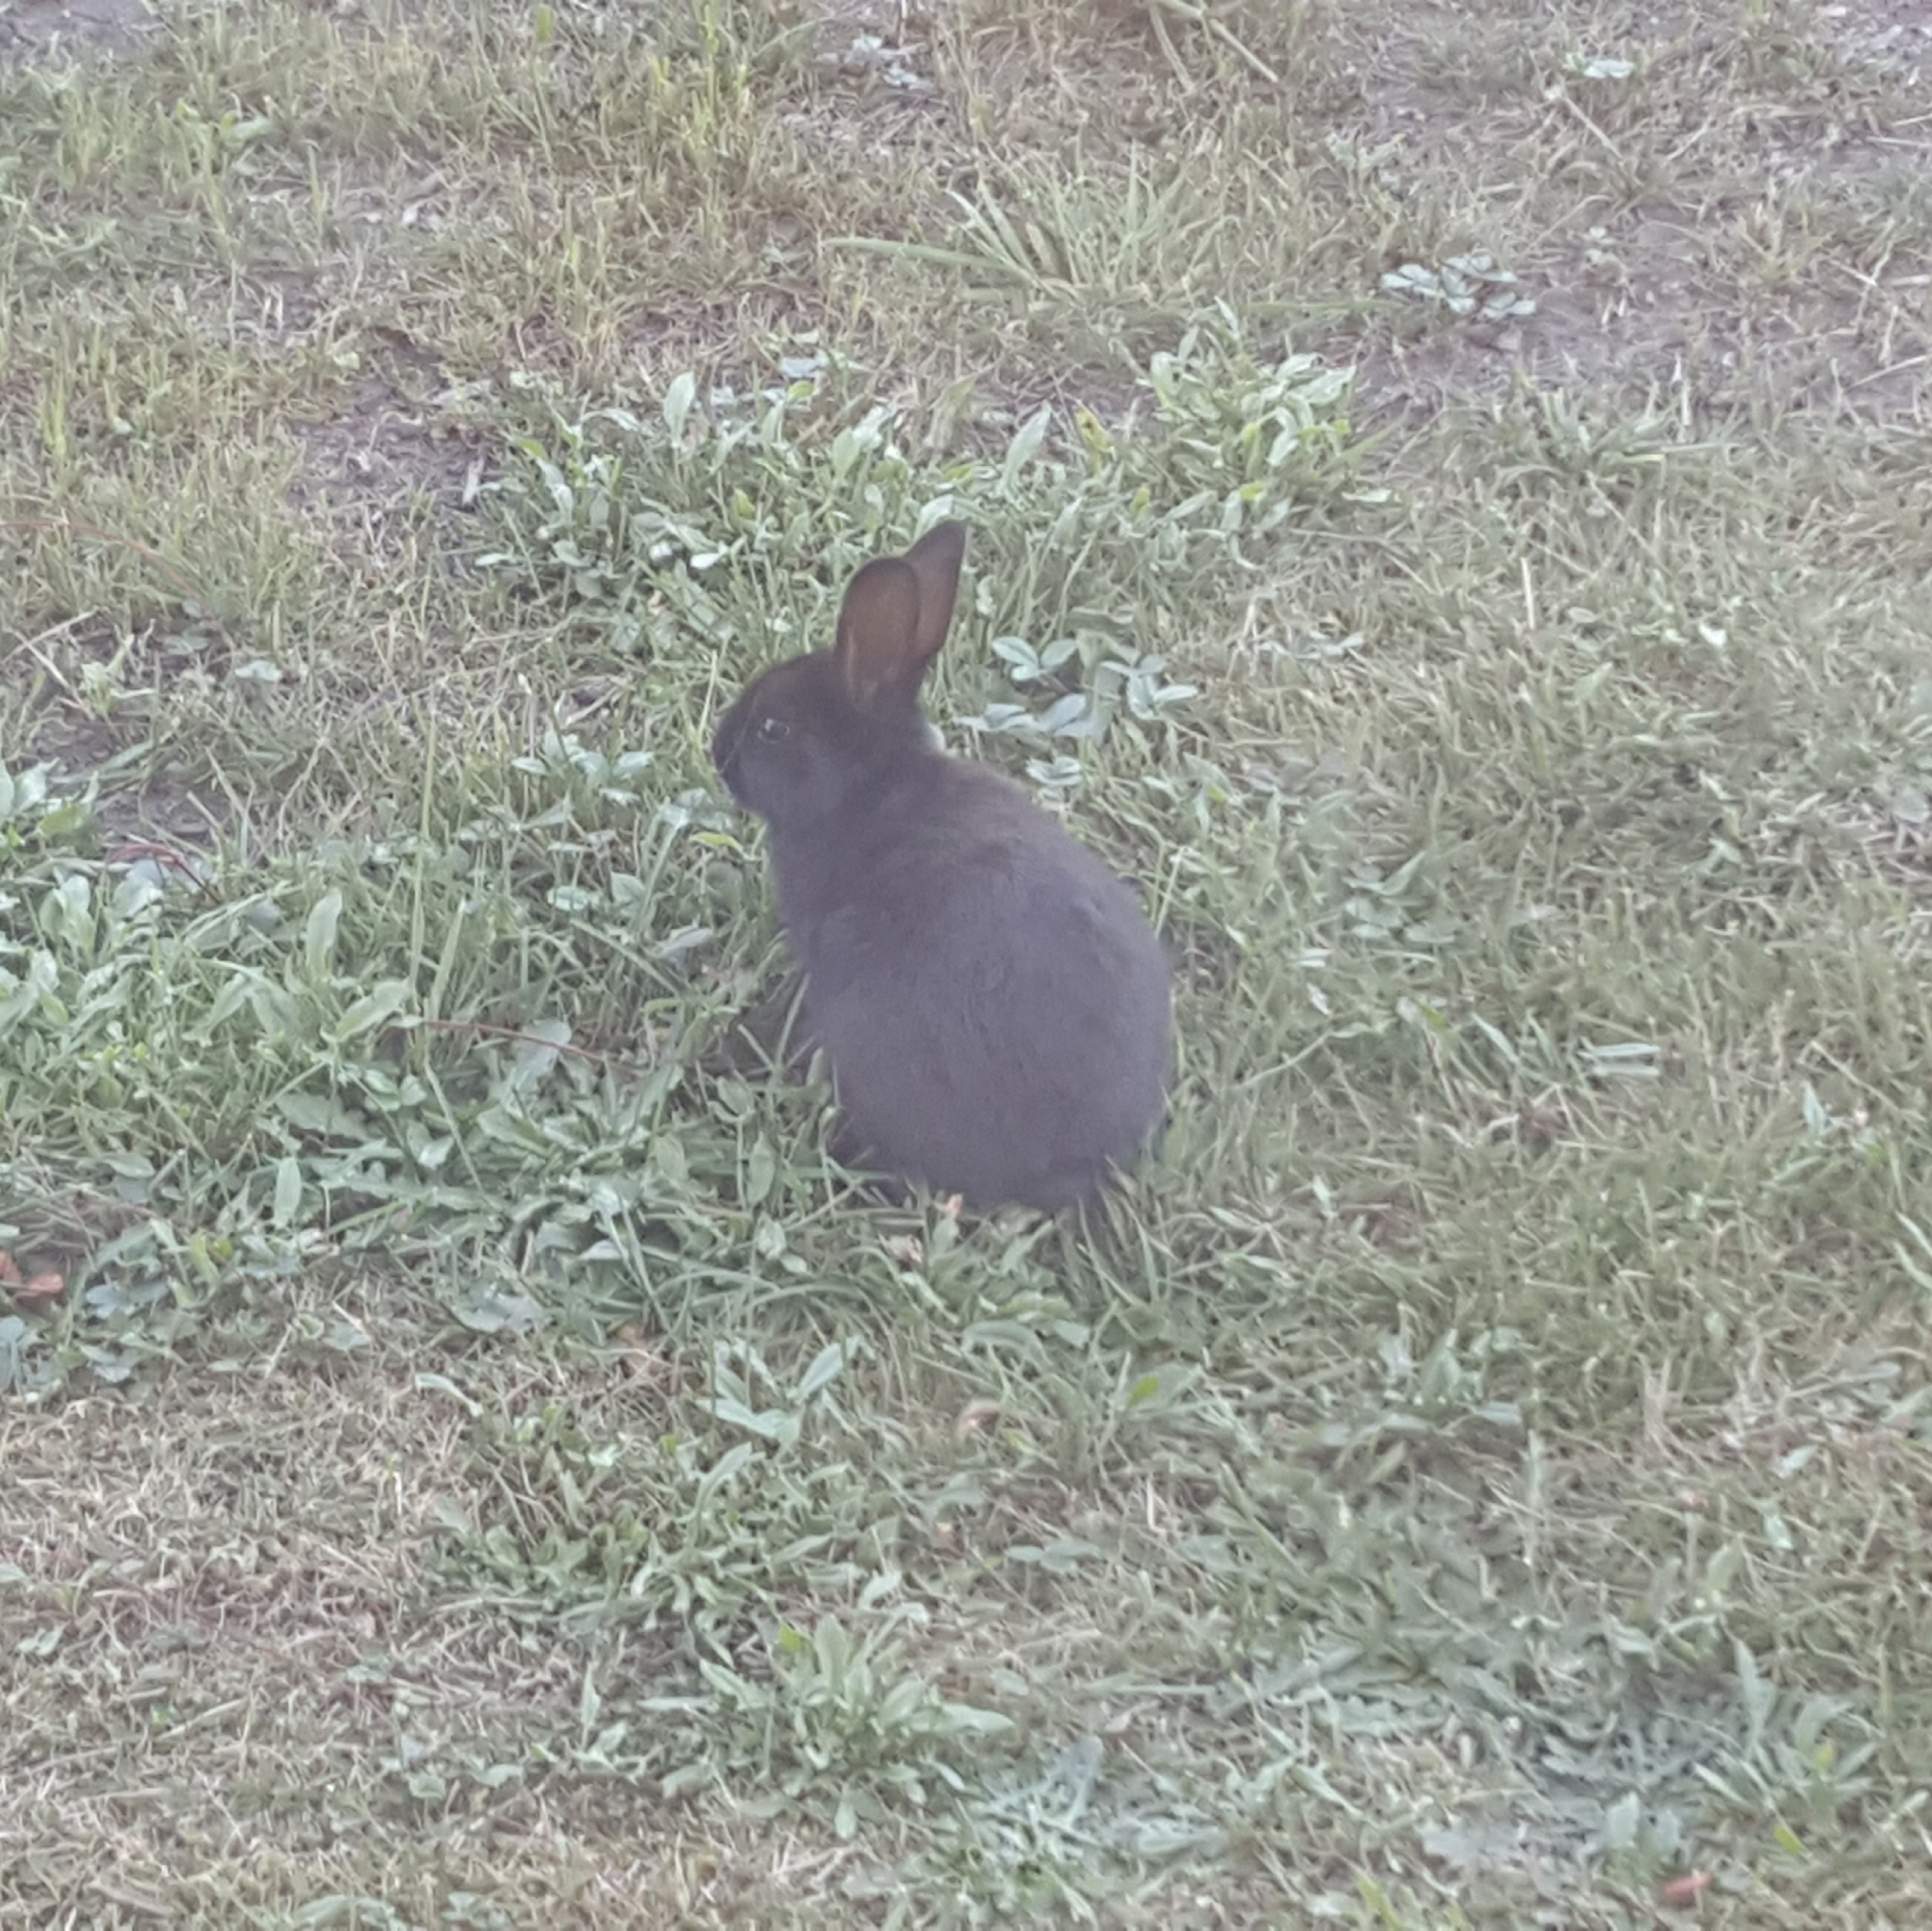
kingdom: Animalia
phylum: Chordata
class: Mammalia
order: Lagomorpha
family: Leporidae
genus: Oryctolagus
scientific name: Oryctolagus cuniculus
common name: European rabbit
